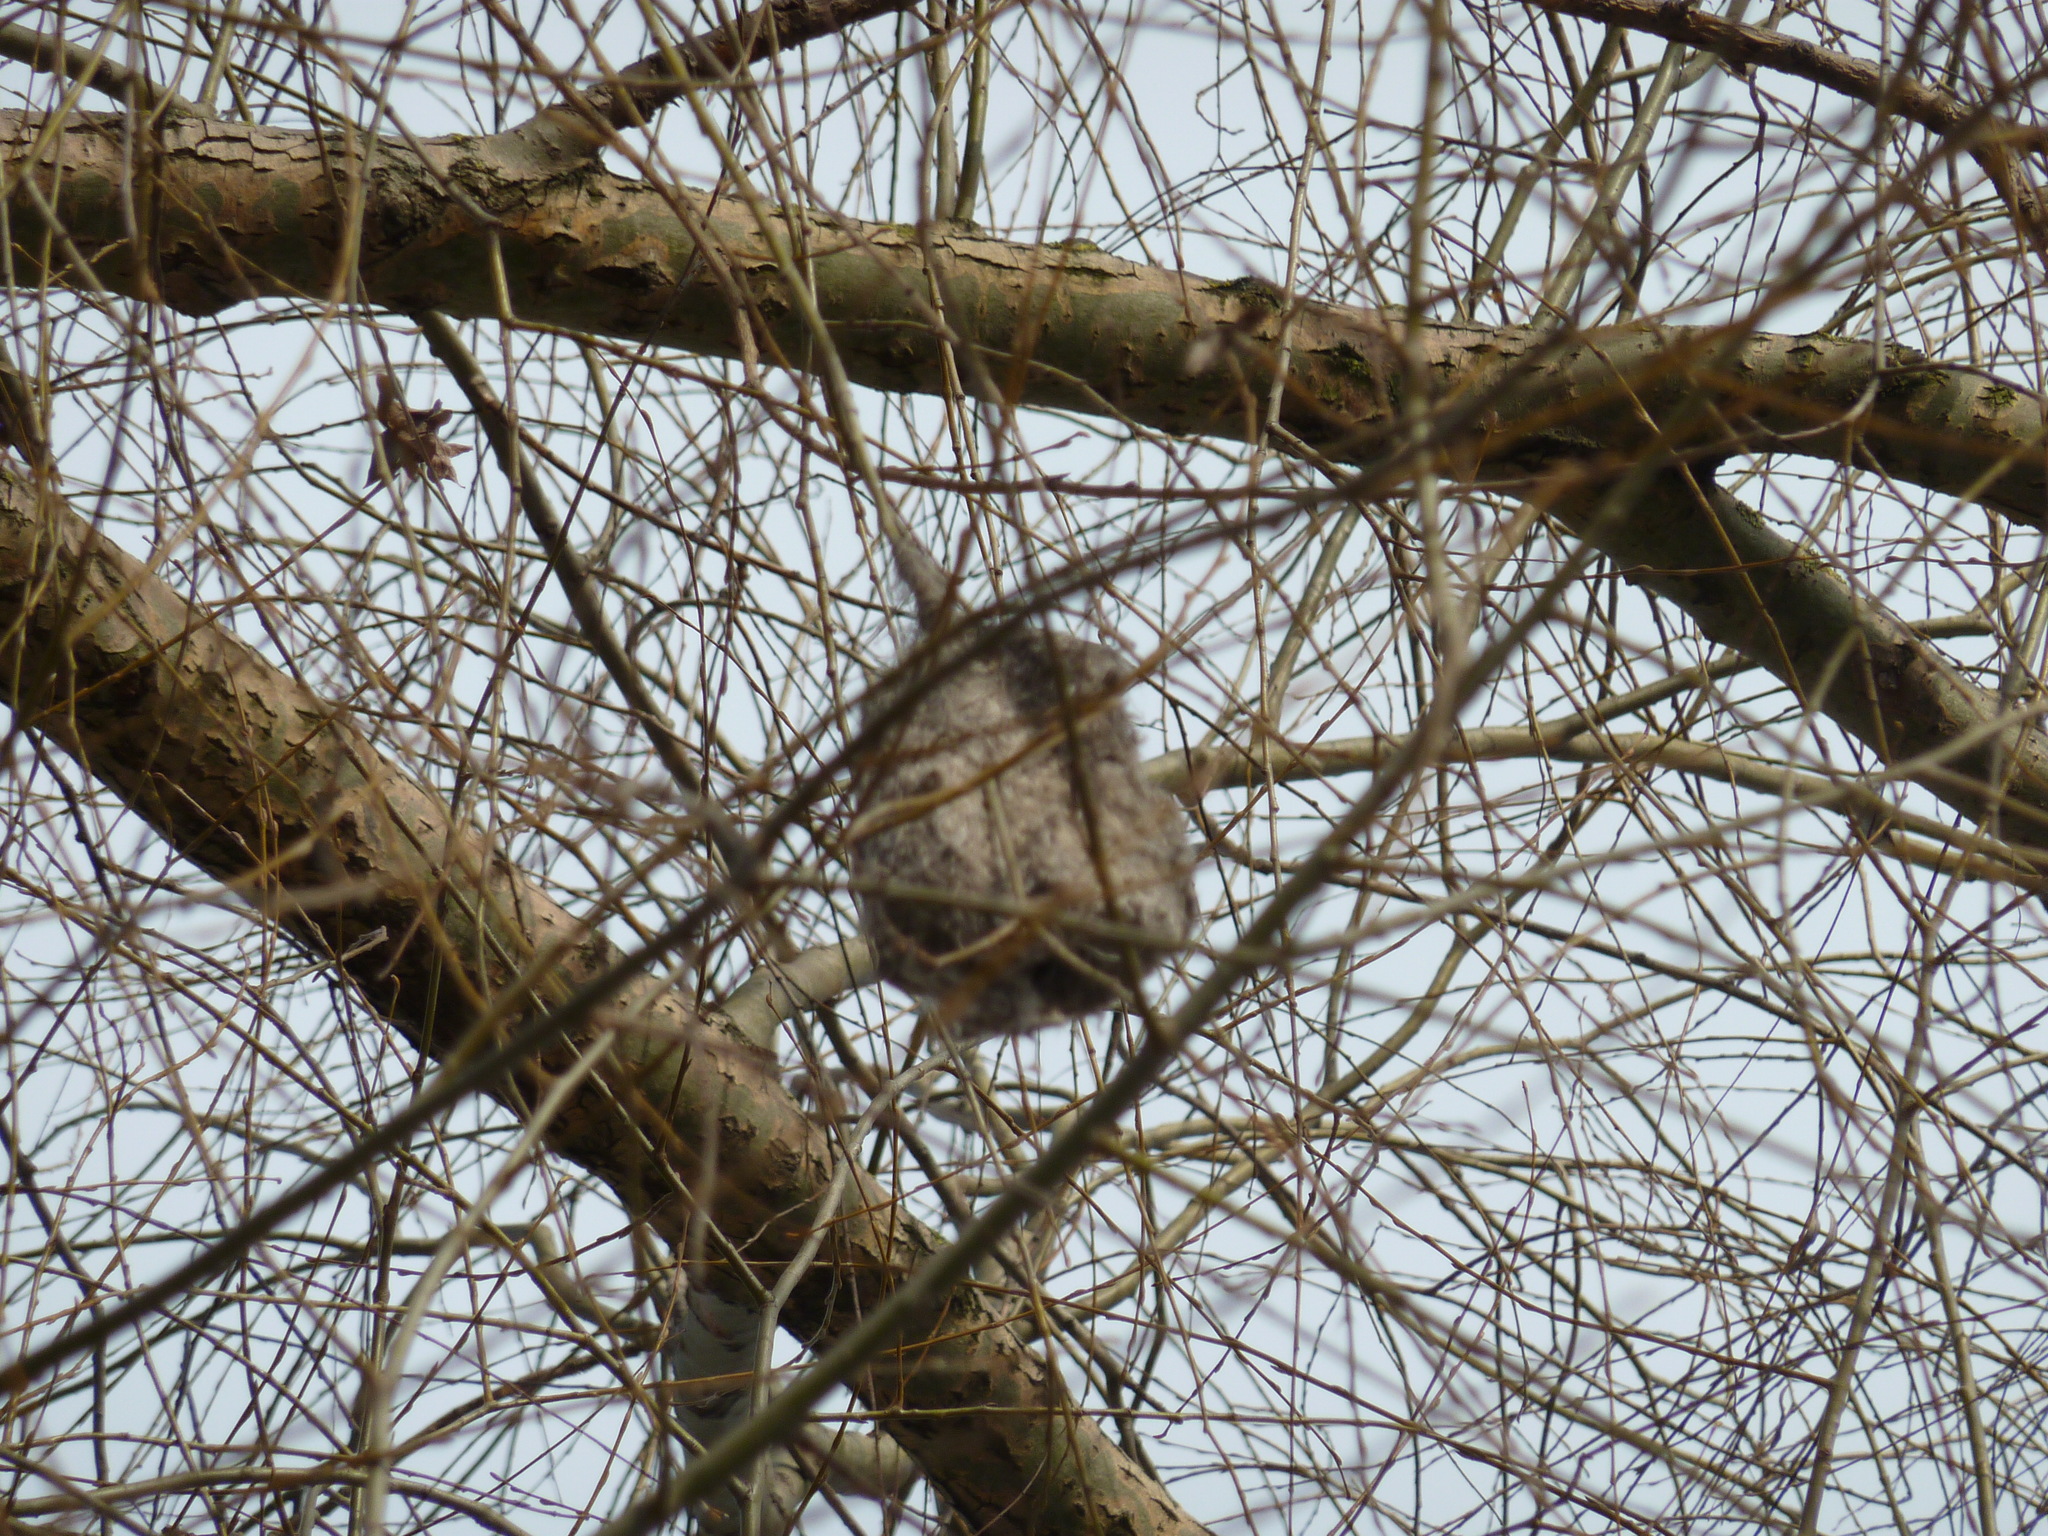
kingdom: Animalia
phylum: Chordata
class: Aves
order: Passeriformes
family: Remizidae
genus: Remiz
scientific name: Remiz pendulinus
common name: Eurasian penduline tit
